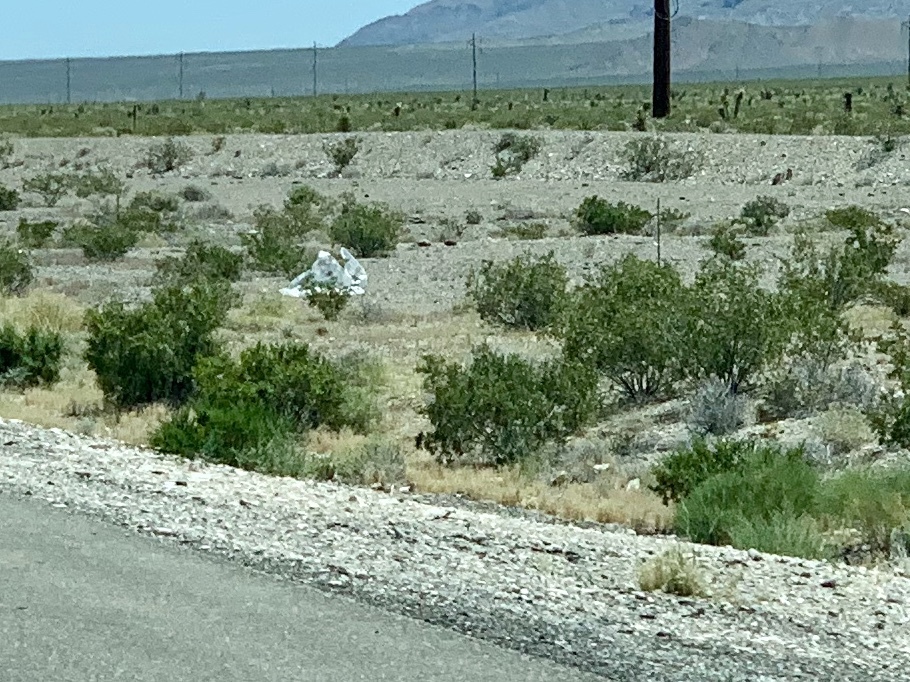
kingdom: Plantae
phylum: Tracheophyta
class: Magnoliopsida
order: Zygophyllales
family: Zygophyllaceae
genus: Larrea
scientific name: Larrea tridentata
